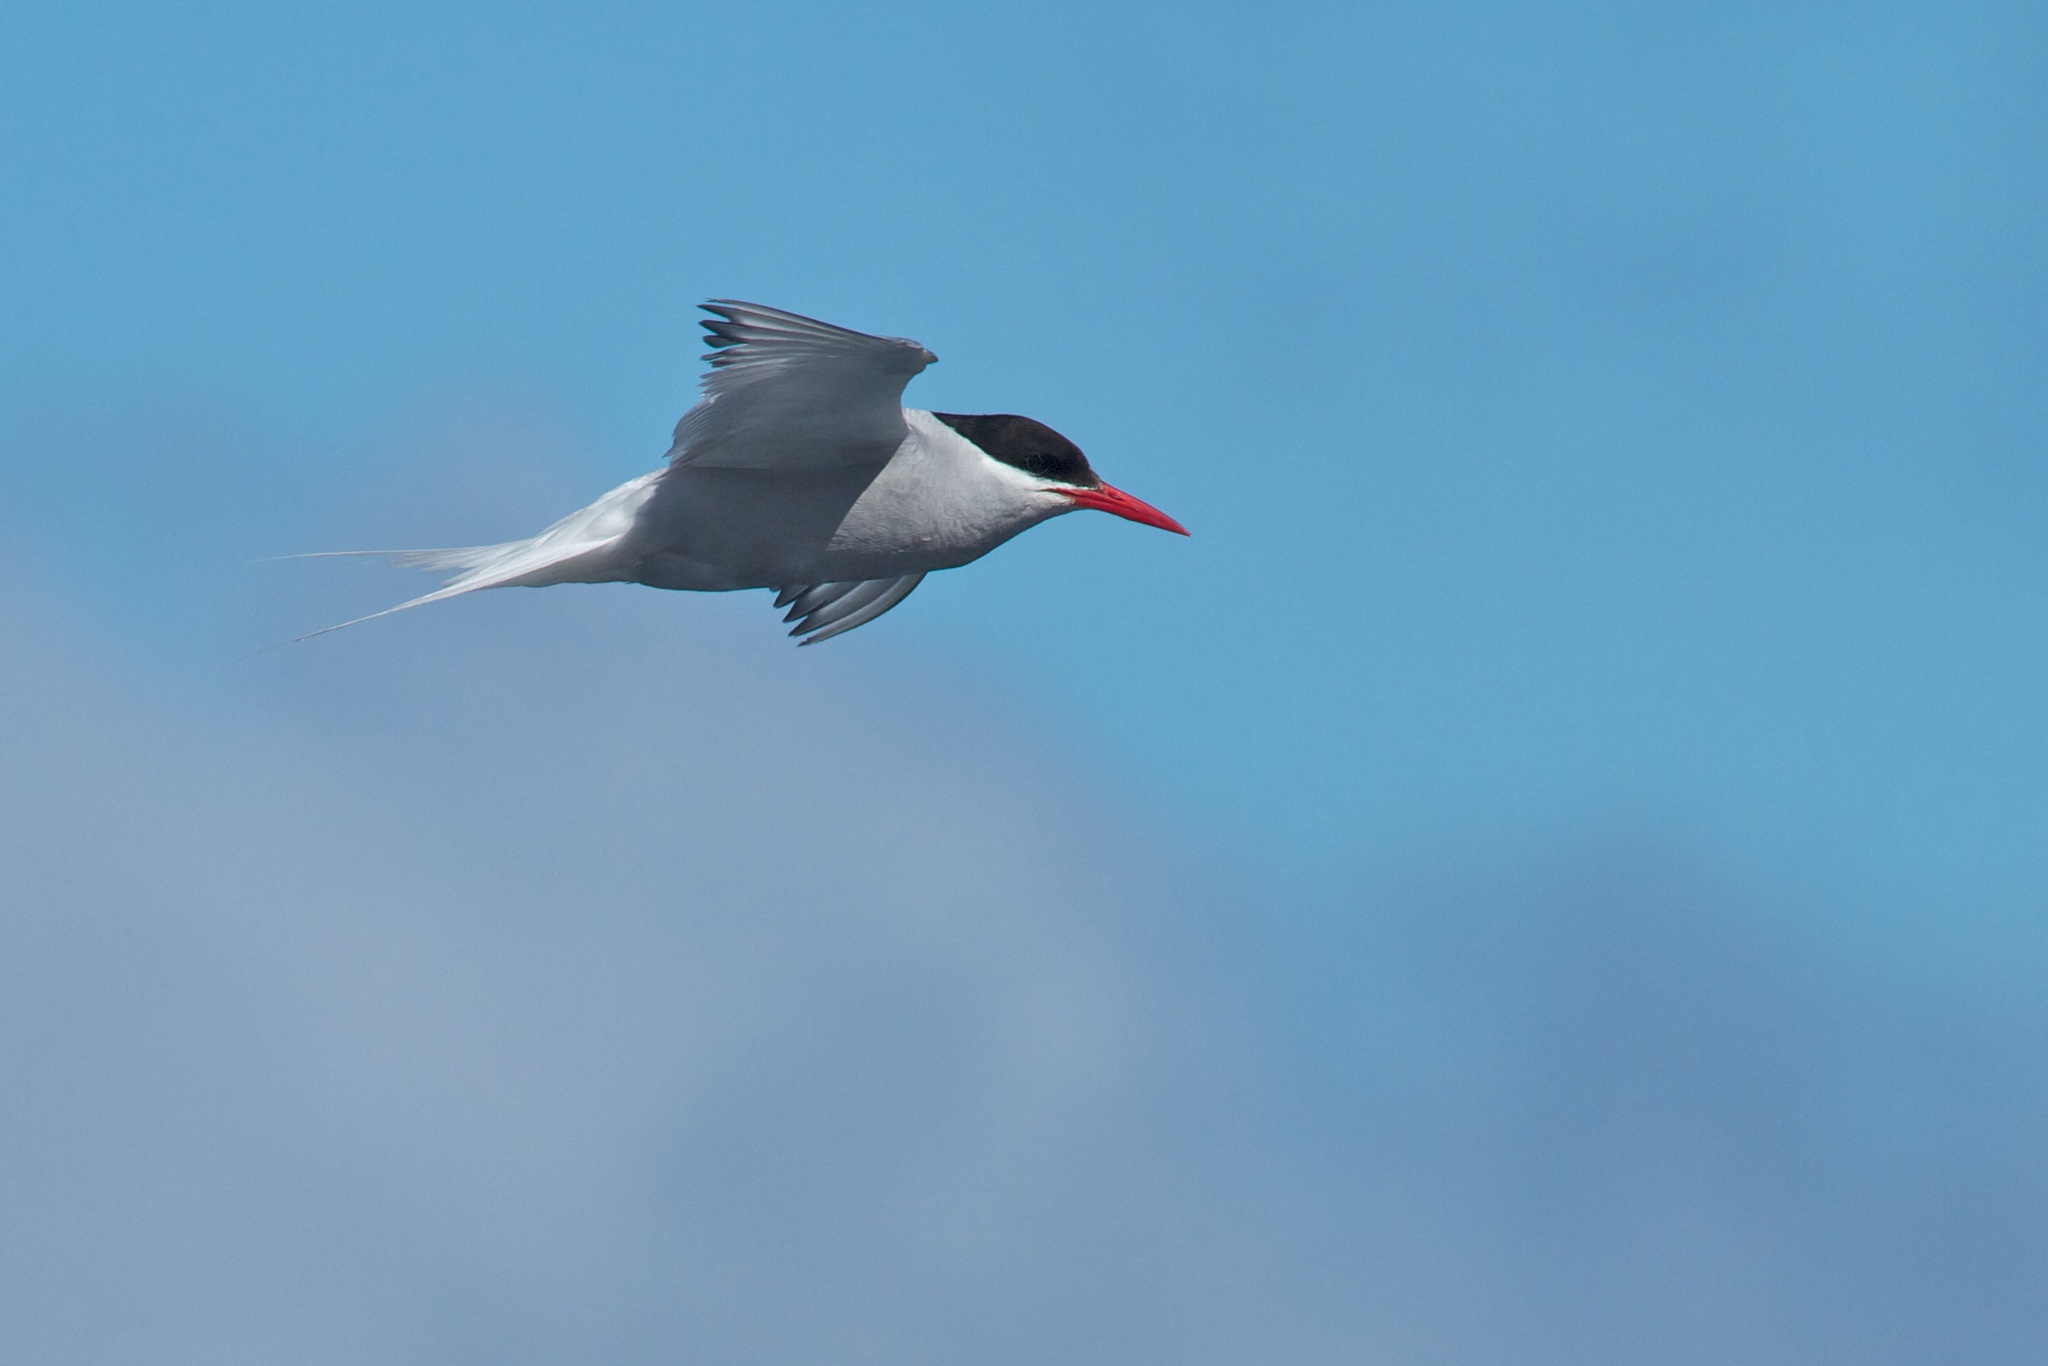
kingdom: Animalia
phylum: Chordata
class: Aves
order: Charadriiformes
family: Laridae
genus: Sterna
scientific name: Sterna vittata
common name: Antarctic tern
